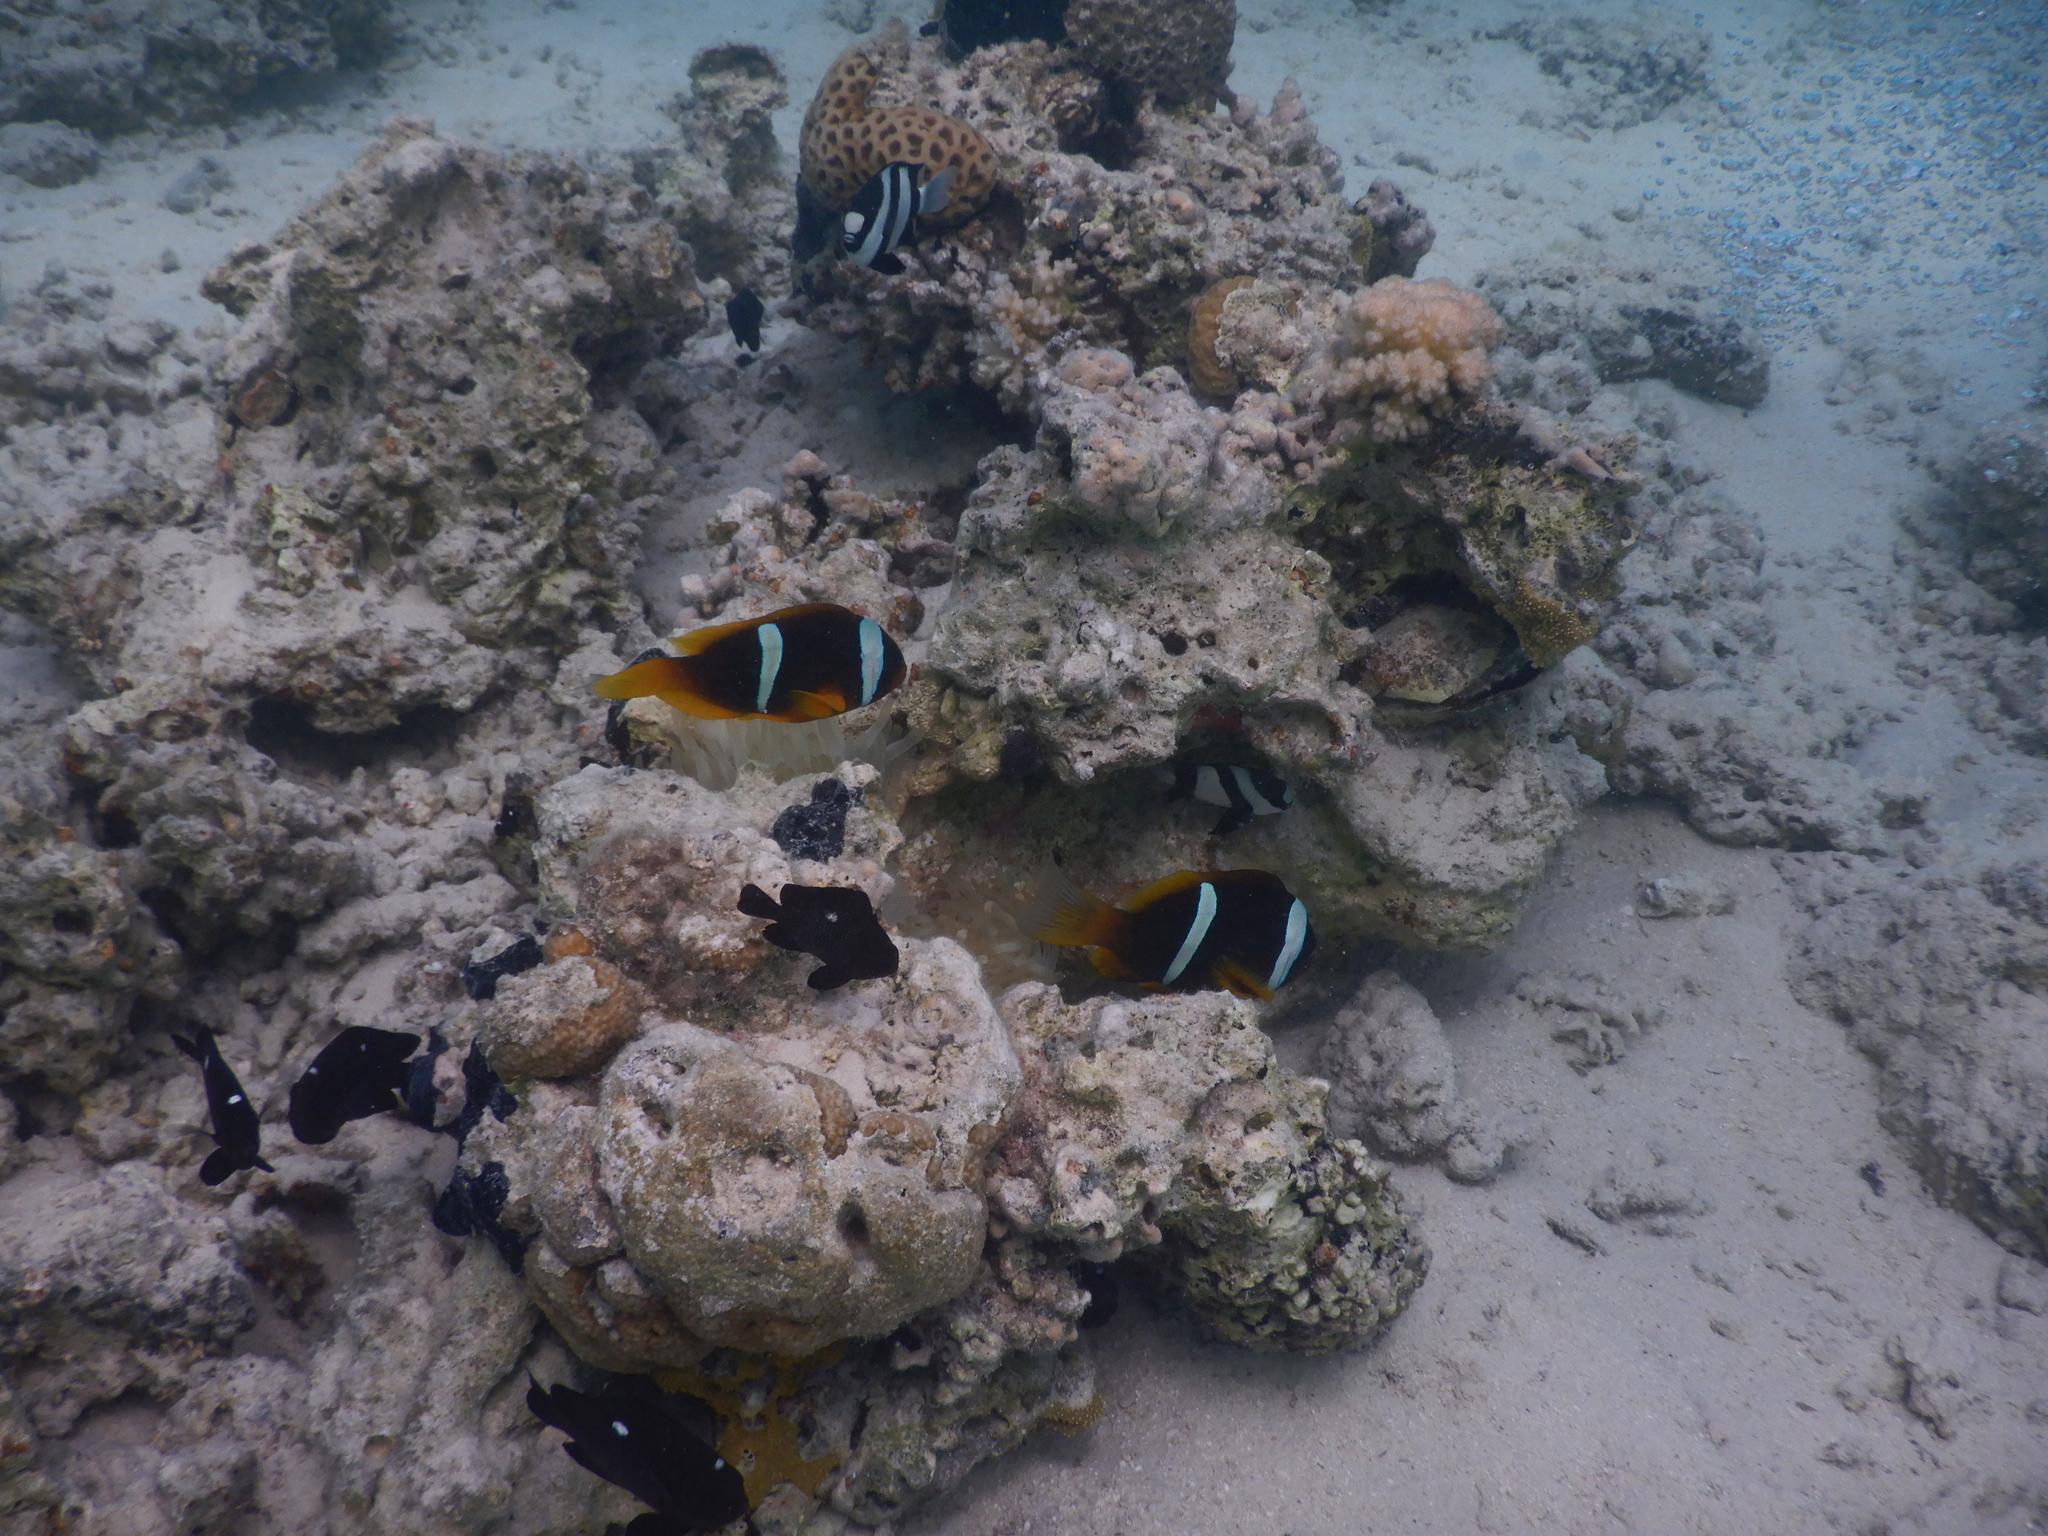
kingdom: Animalia
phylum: Chordata
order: Perciformes
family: Pomacentridae
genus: Amphiprion
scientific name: Amphiprion bicinctus
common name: Two-banded anemonefish
